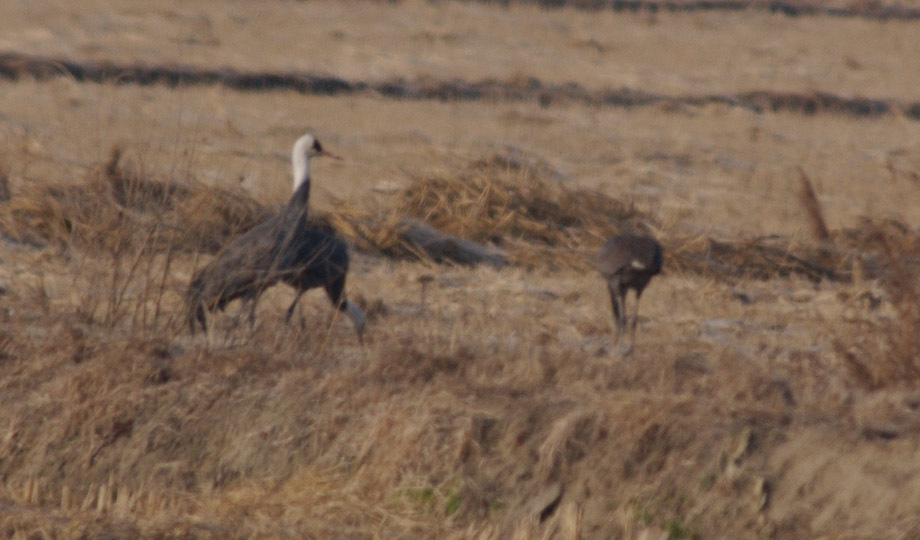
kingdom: Animalia
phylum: Chordata
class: Aves
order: Gruiformes
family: Gruidae
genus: Grus
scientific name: Grus monacha
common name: Hooded crane
